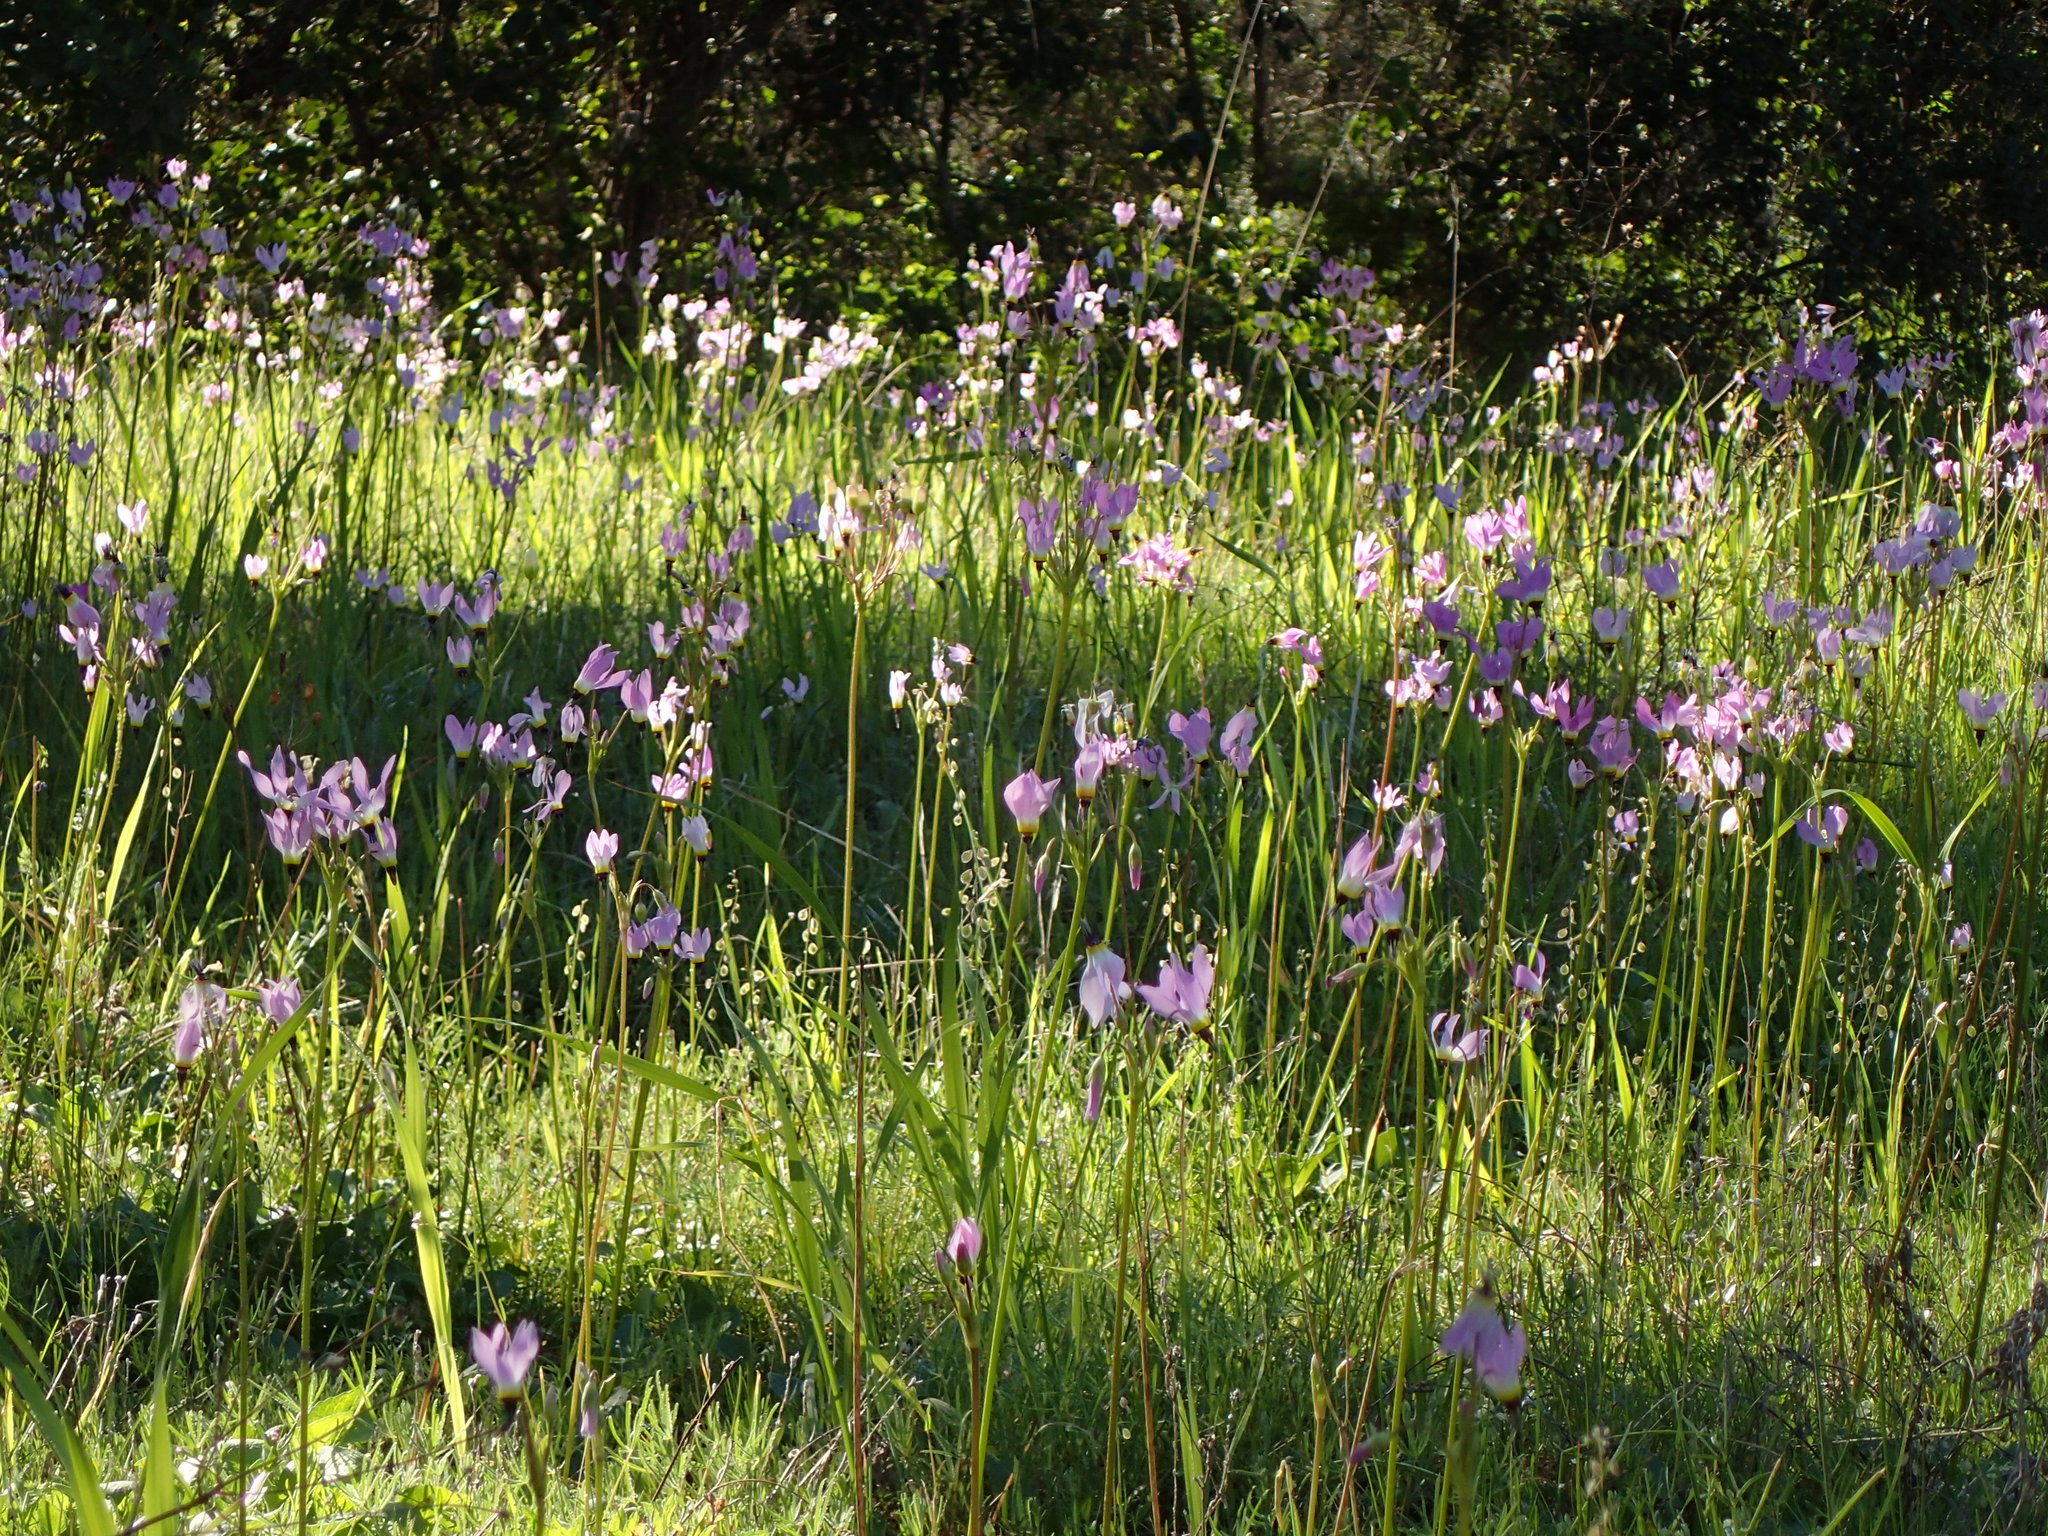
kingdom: Plantae
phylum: Tracheophyta
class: Magnoliopsida
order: Ericales
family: Primulaceae
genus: Dodecatheon
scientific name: Dodecatheon clevelandii
